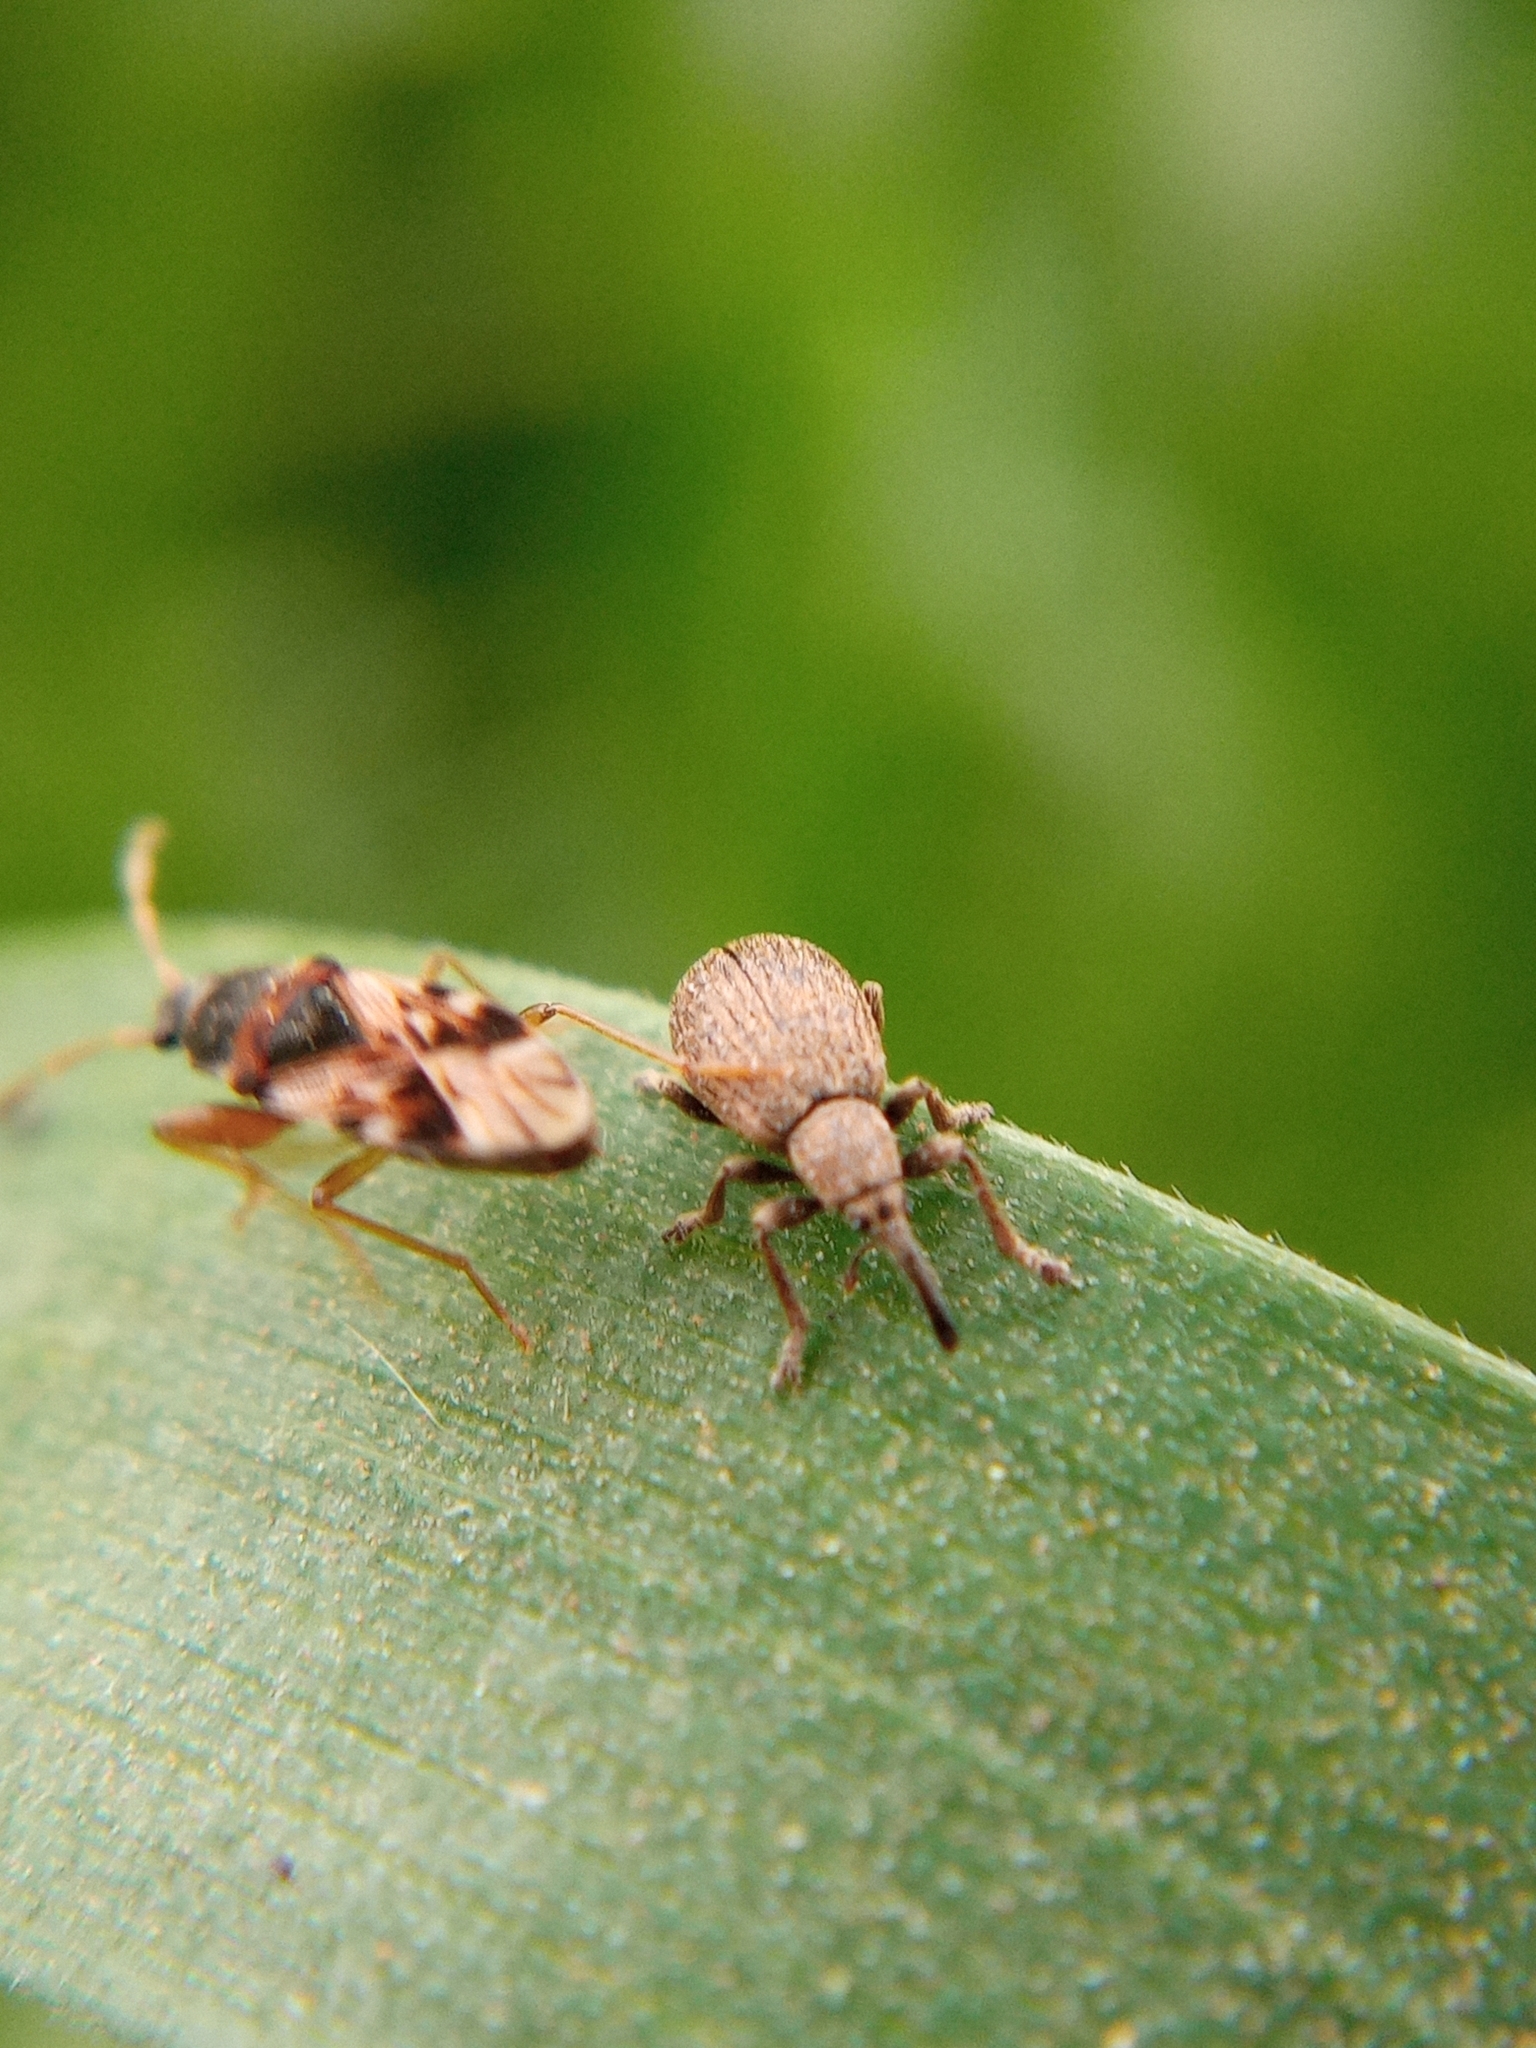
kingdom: Animalia
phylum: Arthropoda
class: Insecta
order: Coleoptera
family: Apionidae
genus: Trichopterapion
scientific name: Trichopterapion holosericeum
